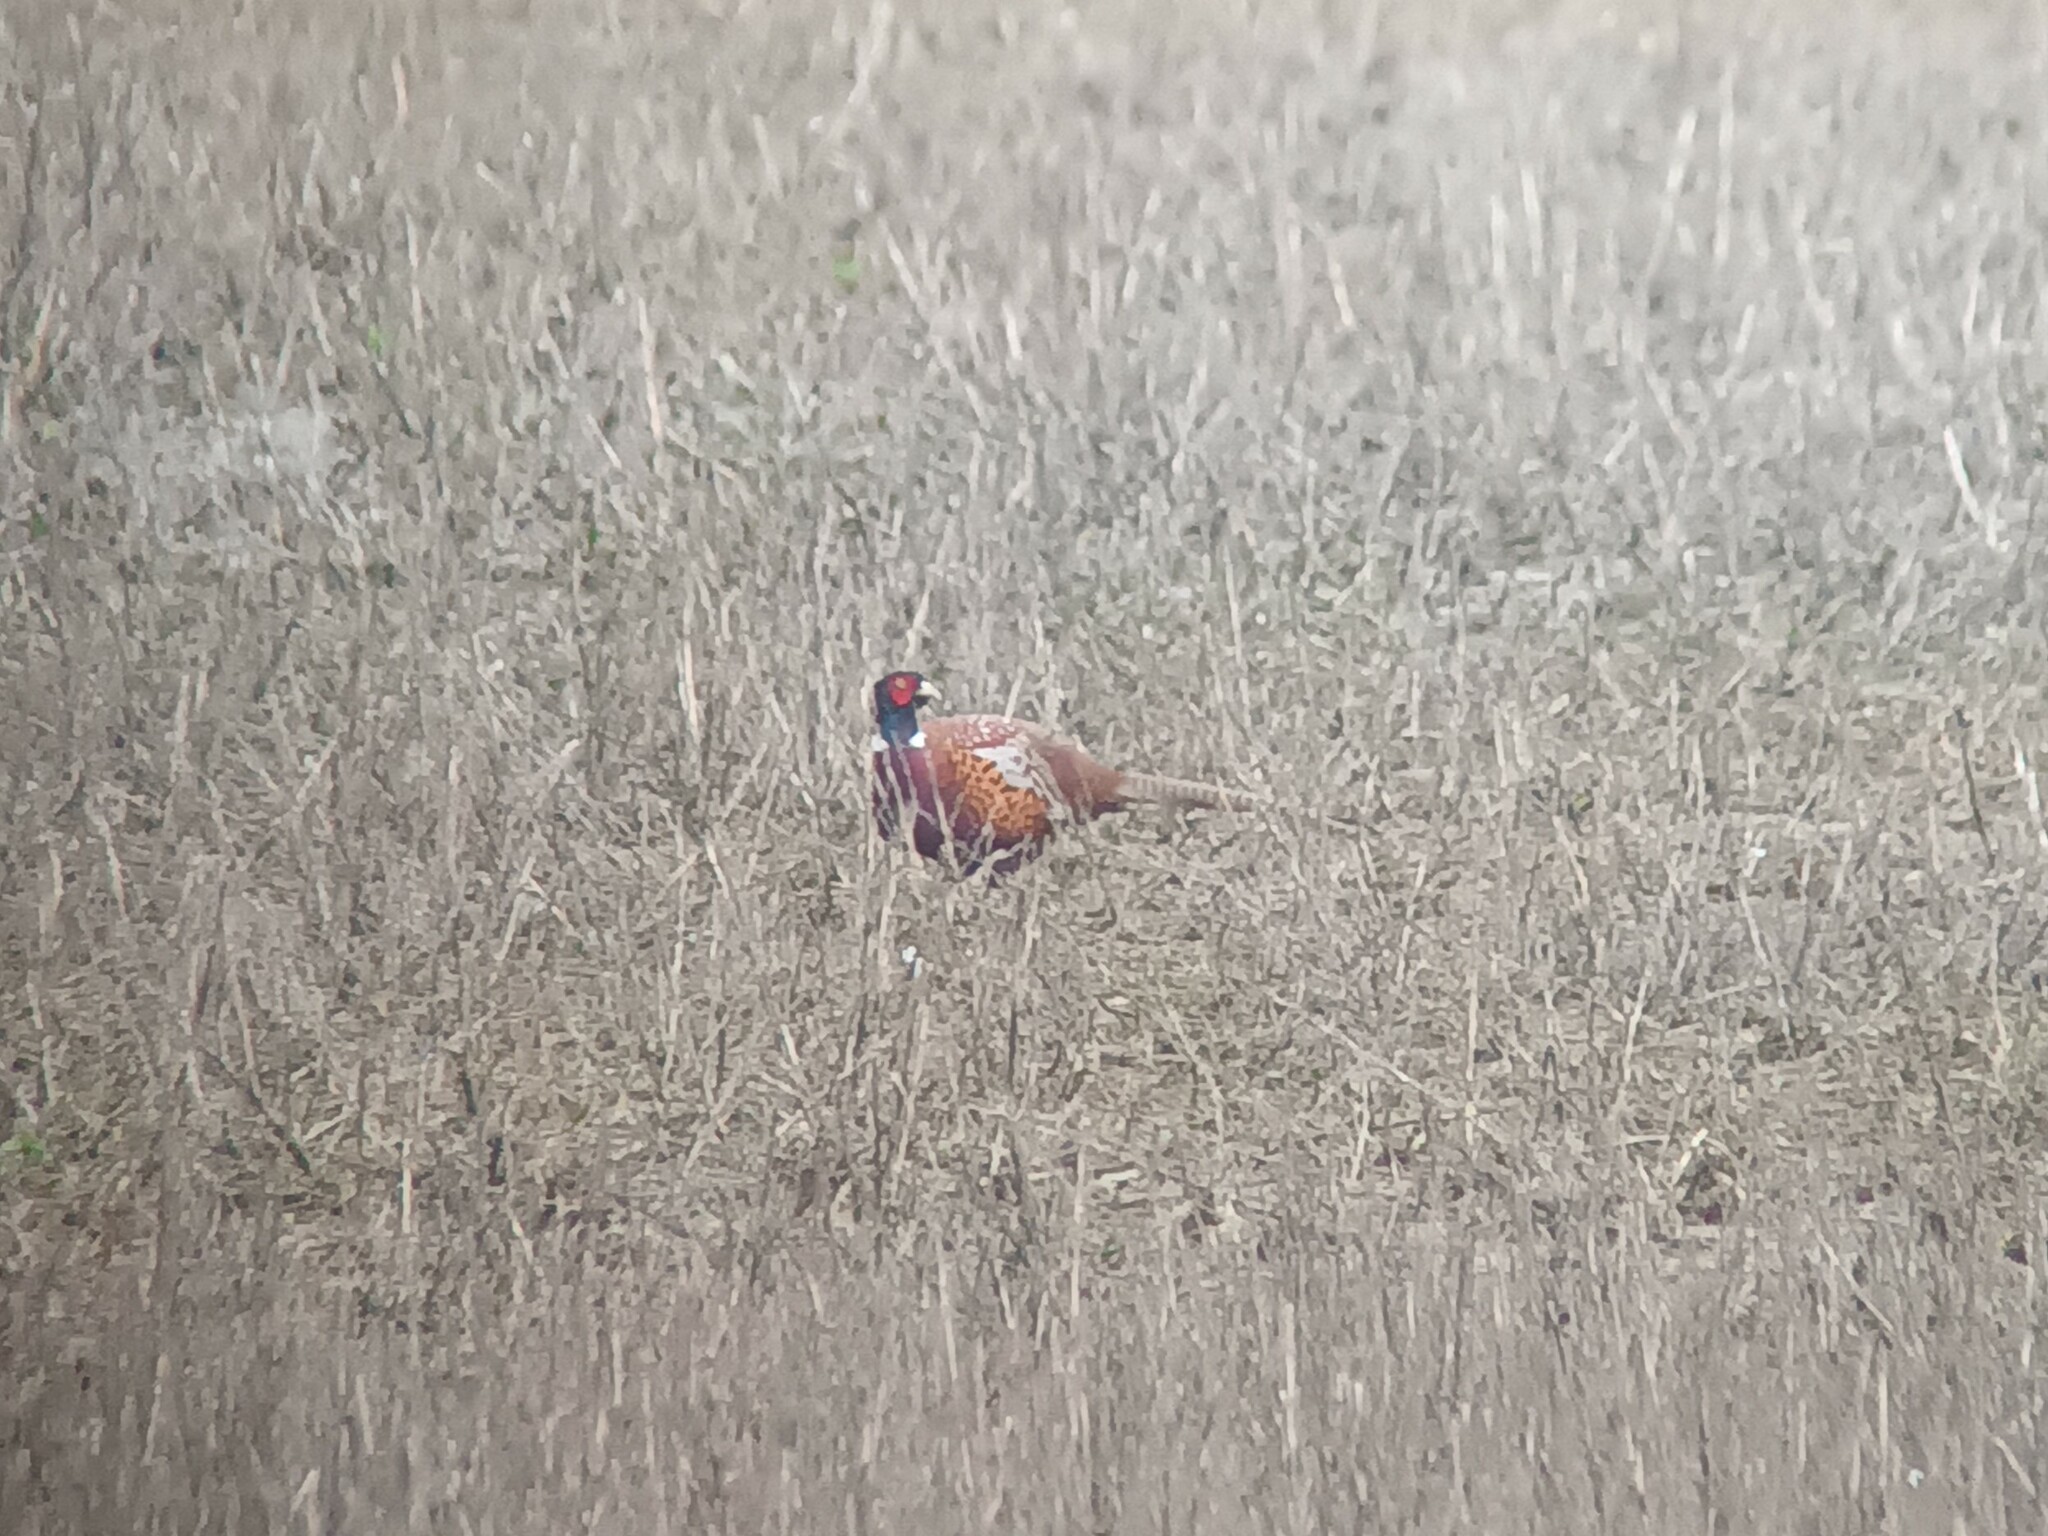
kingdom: Animalia
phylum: Chordata
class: Aves
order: Galliformes
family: Phasianidae
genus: Phasianus
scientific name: Phasianus colchicus
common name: Common pheasant
